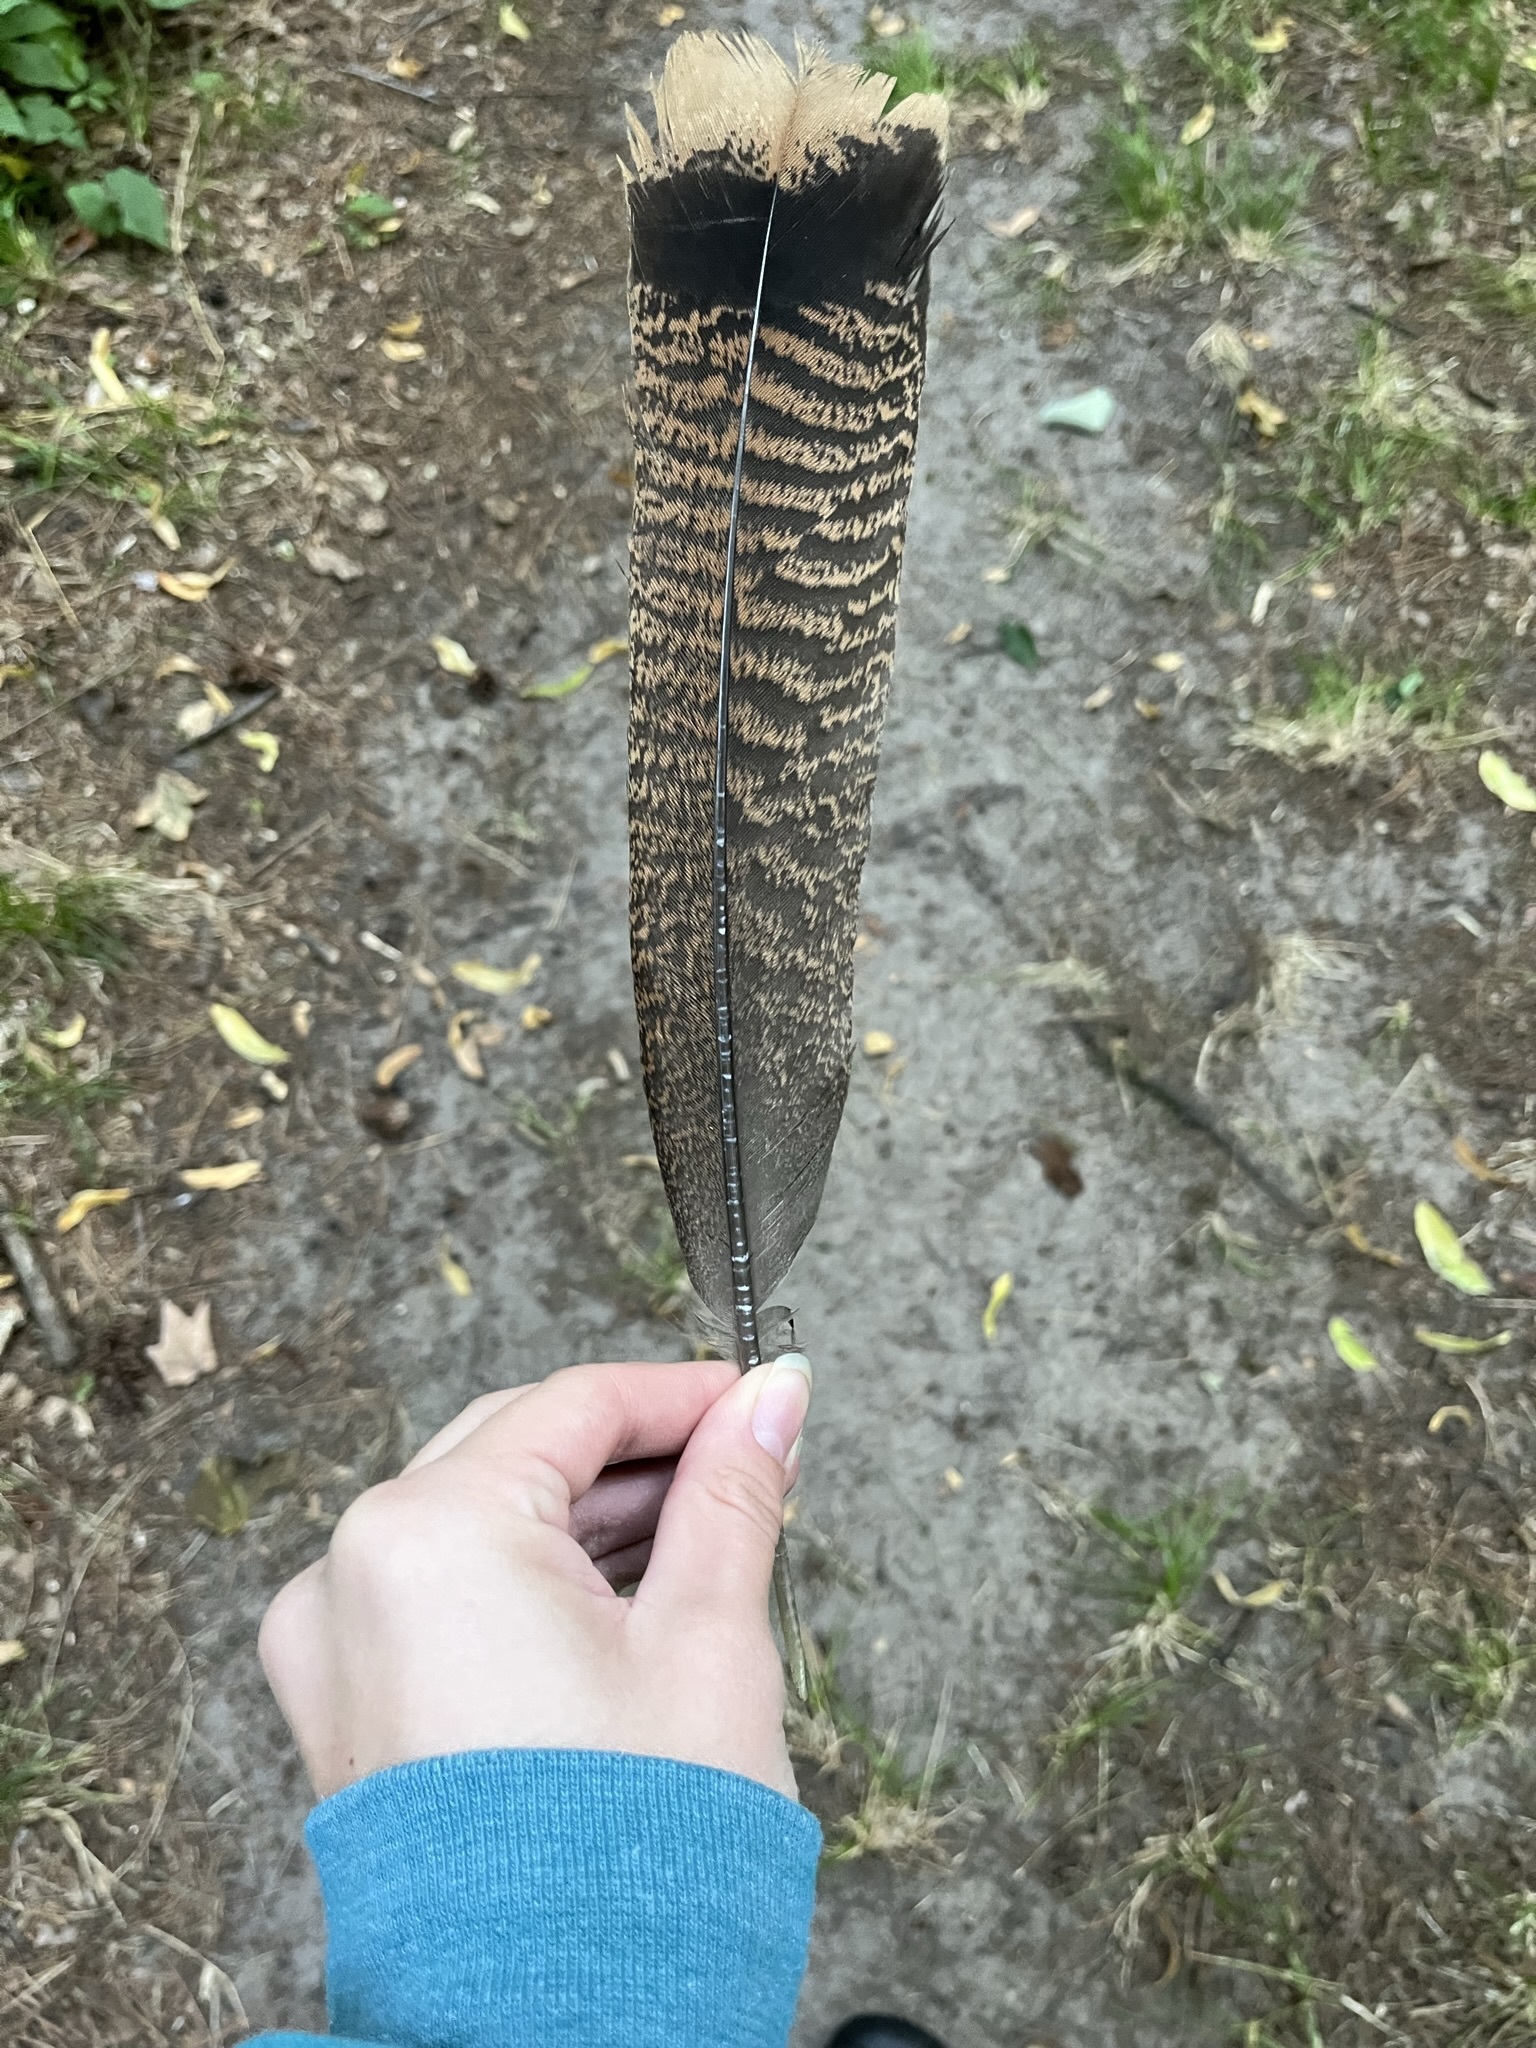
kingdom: Animalia
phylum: Chordata
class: Aves
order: Galliformes
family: Phasianidae
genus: Meleagris
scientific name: Meleagris gallopavo
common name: Wild turkey
